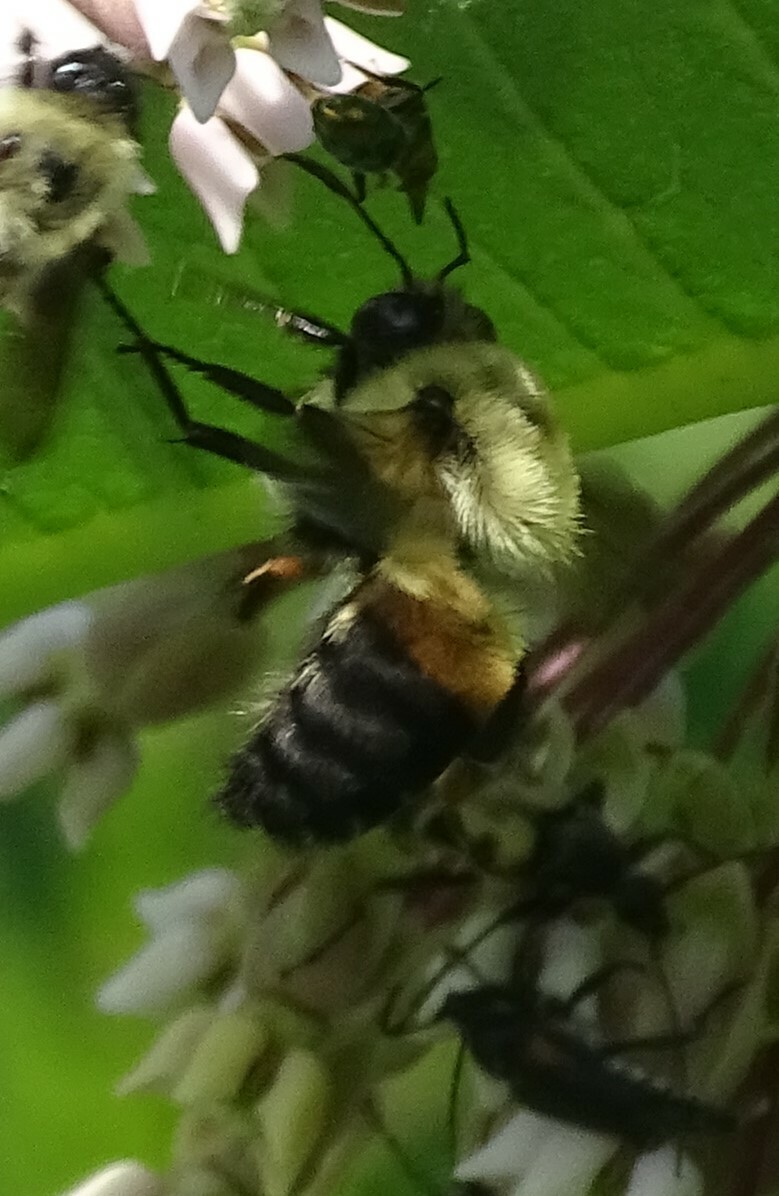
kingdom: Animalia
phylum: Arthropoda
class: Insecta
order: Hymenoptera
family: Apidae
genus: Bombus
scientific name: Bombus griseocollis
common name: Brown-belted bumble bee
